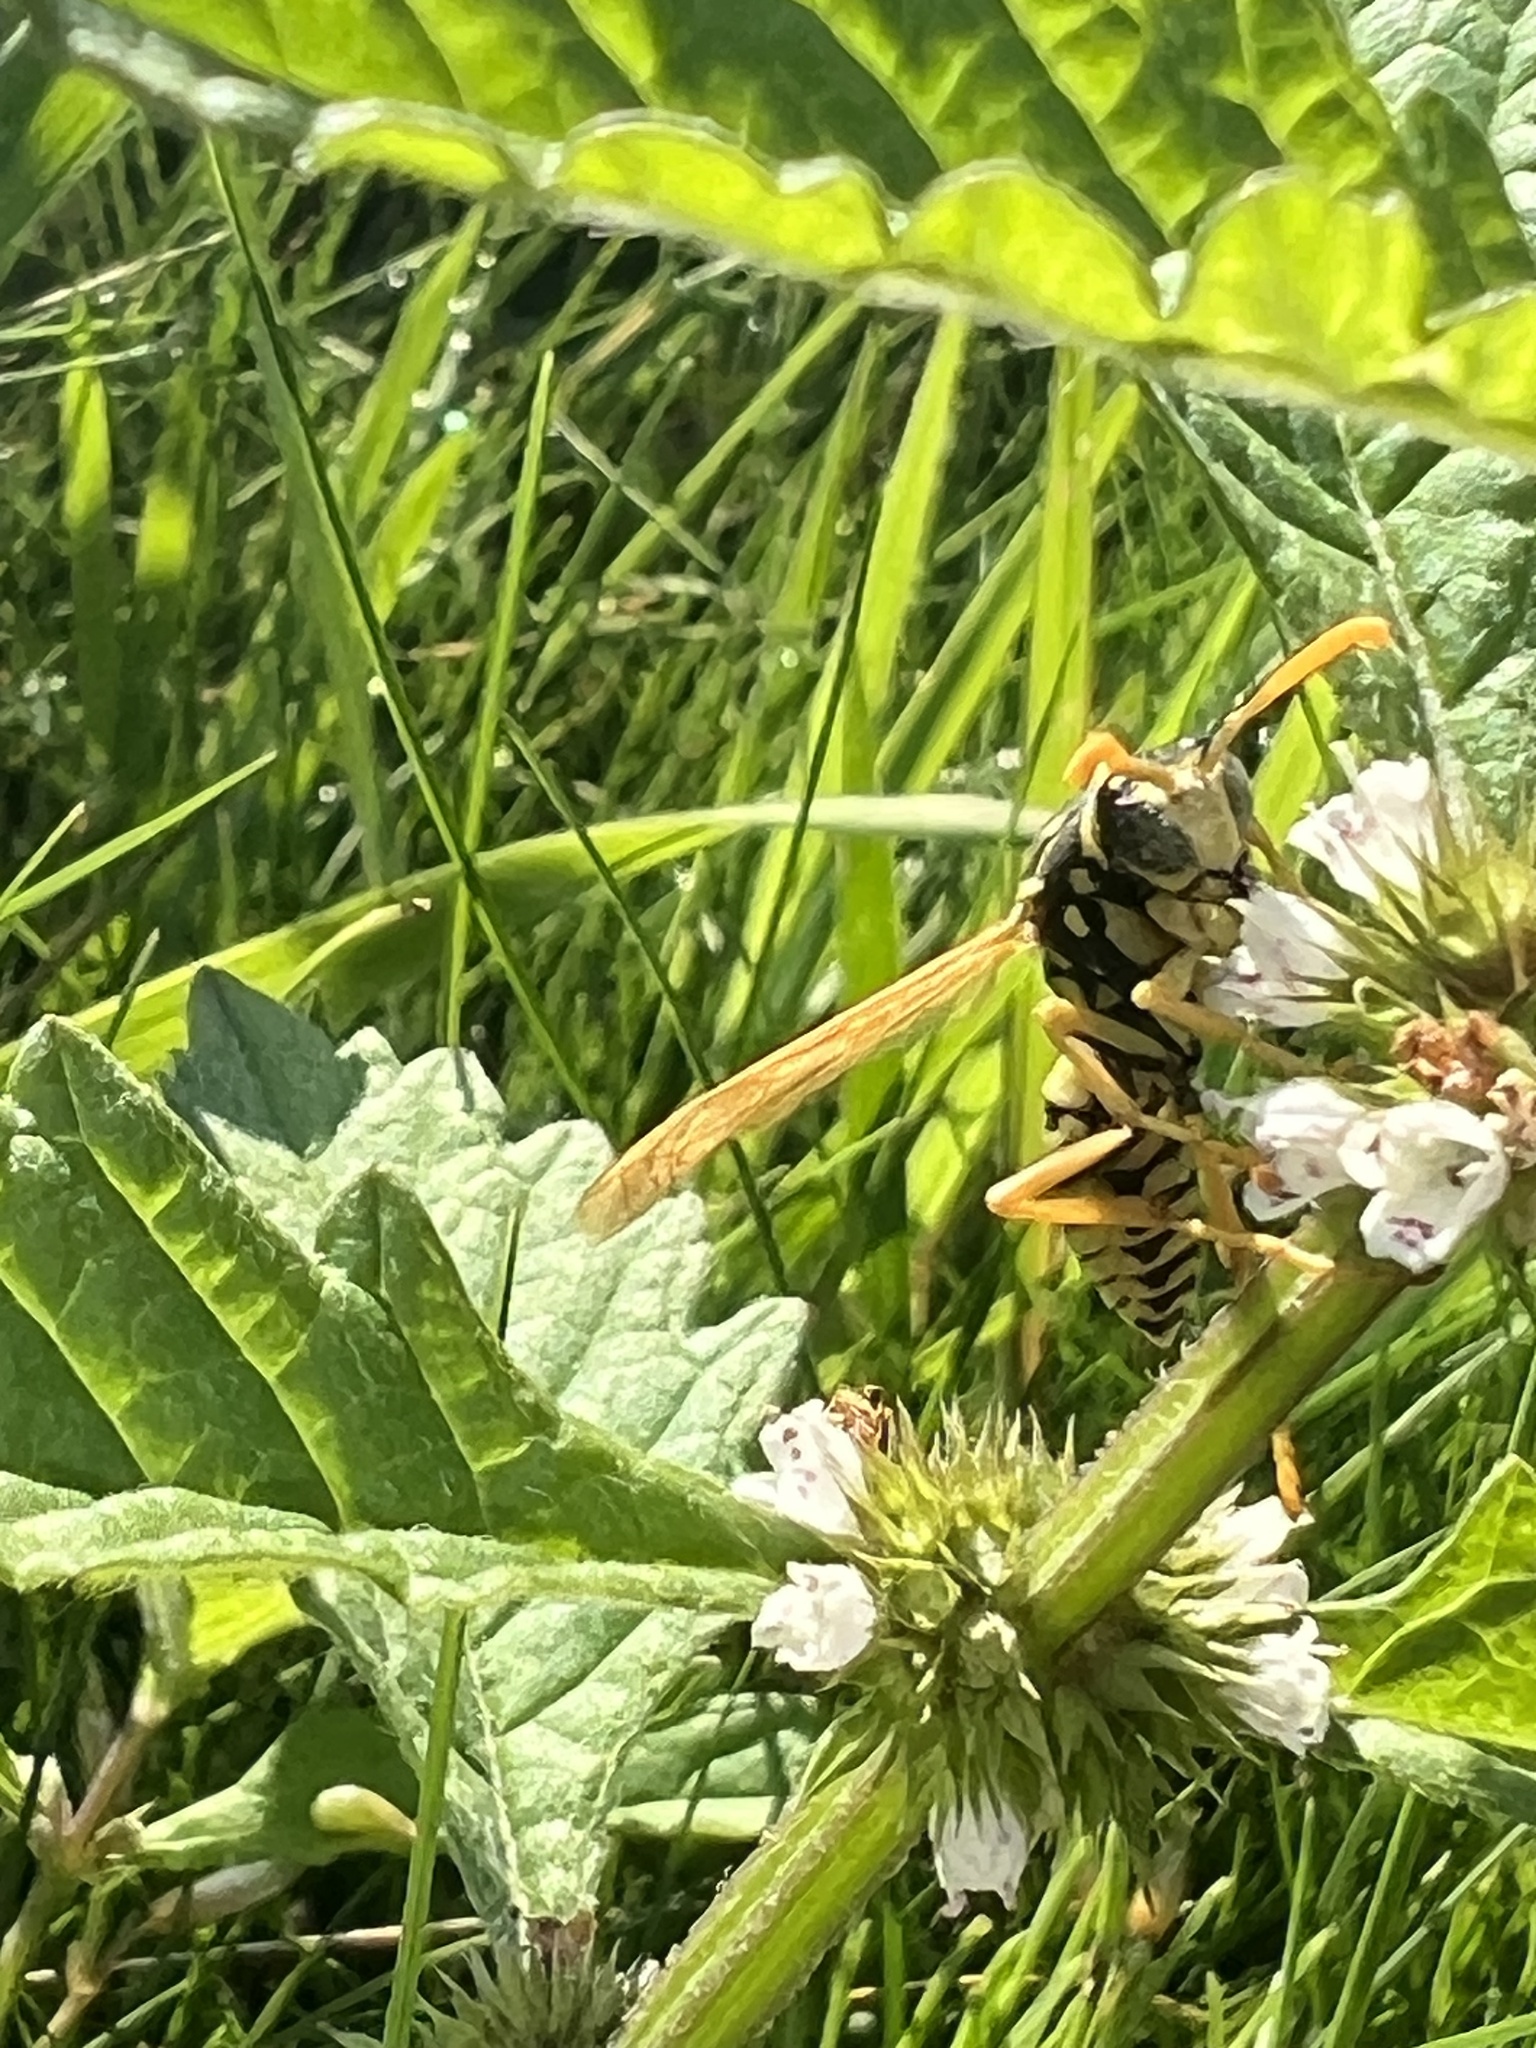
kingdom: Animalia
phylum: Arthropoda
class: Insecta
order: Hymenoptera
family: Eumenidae
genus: Polistes
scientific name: Polistes dominula
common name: Paper wasp
